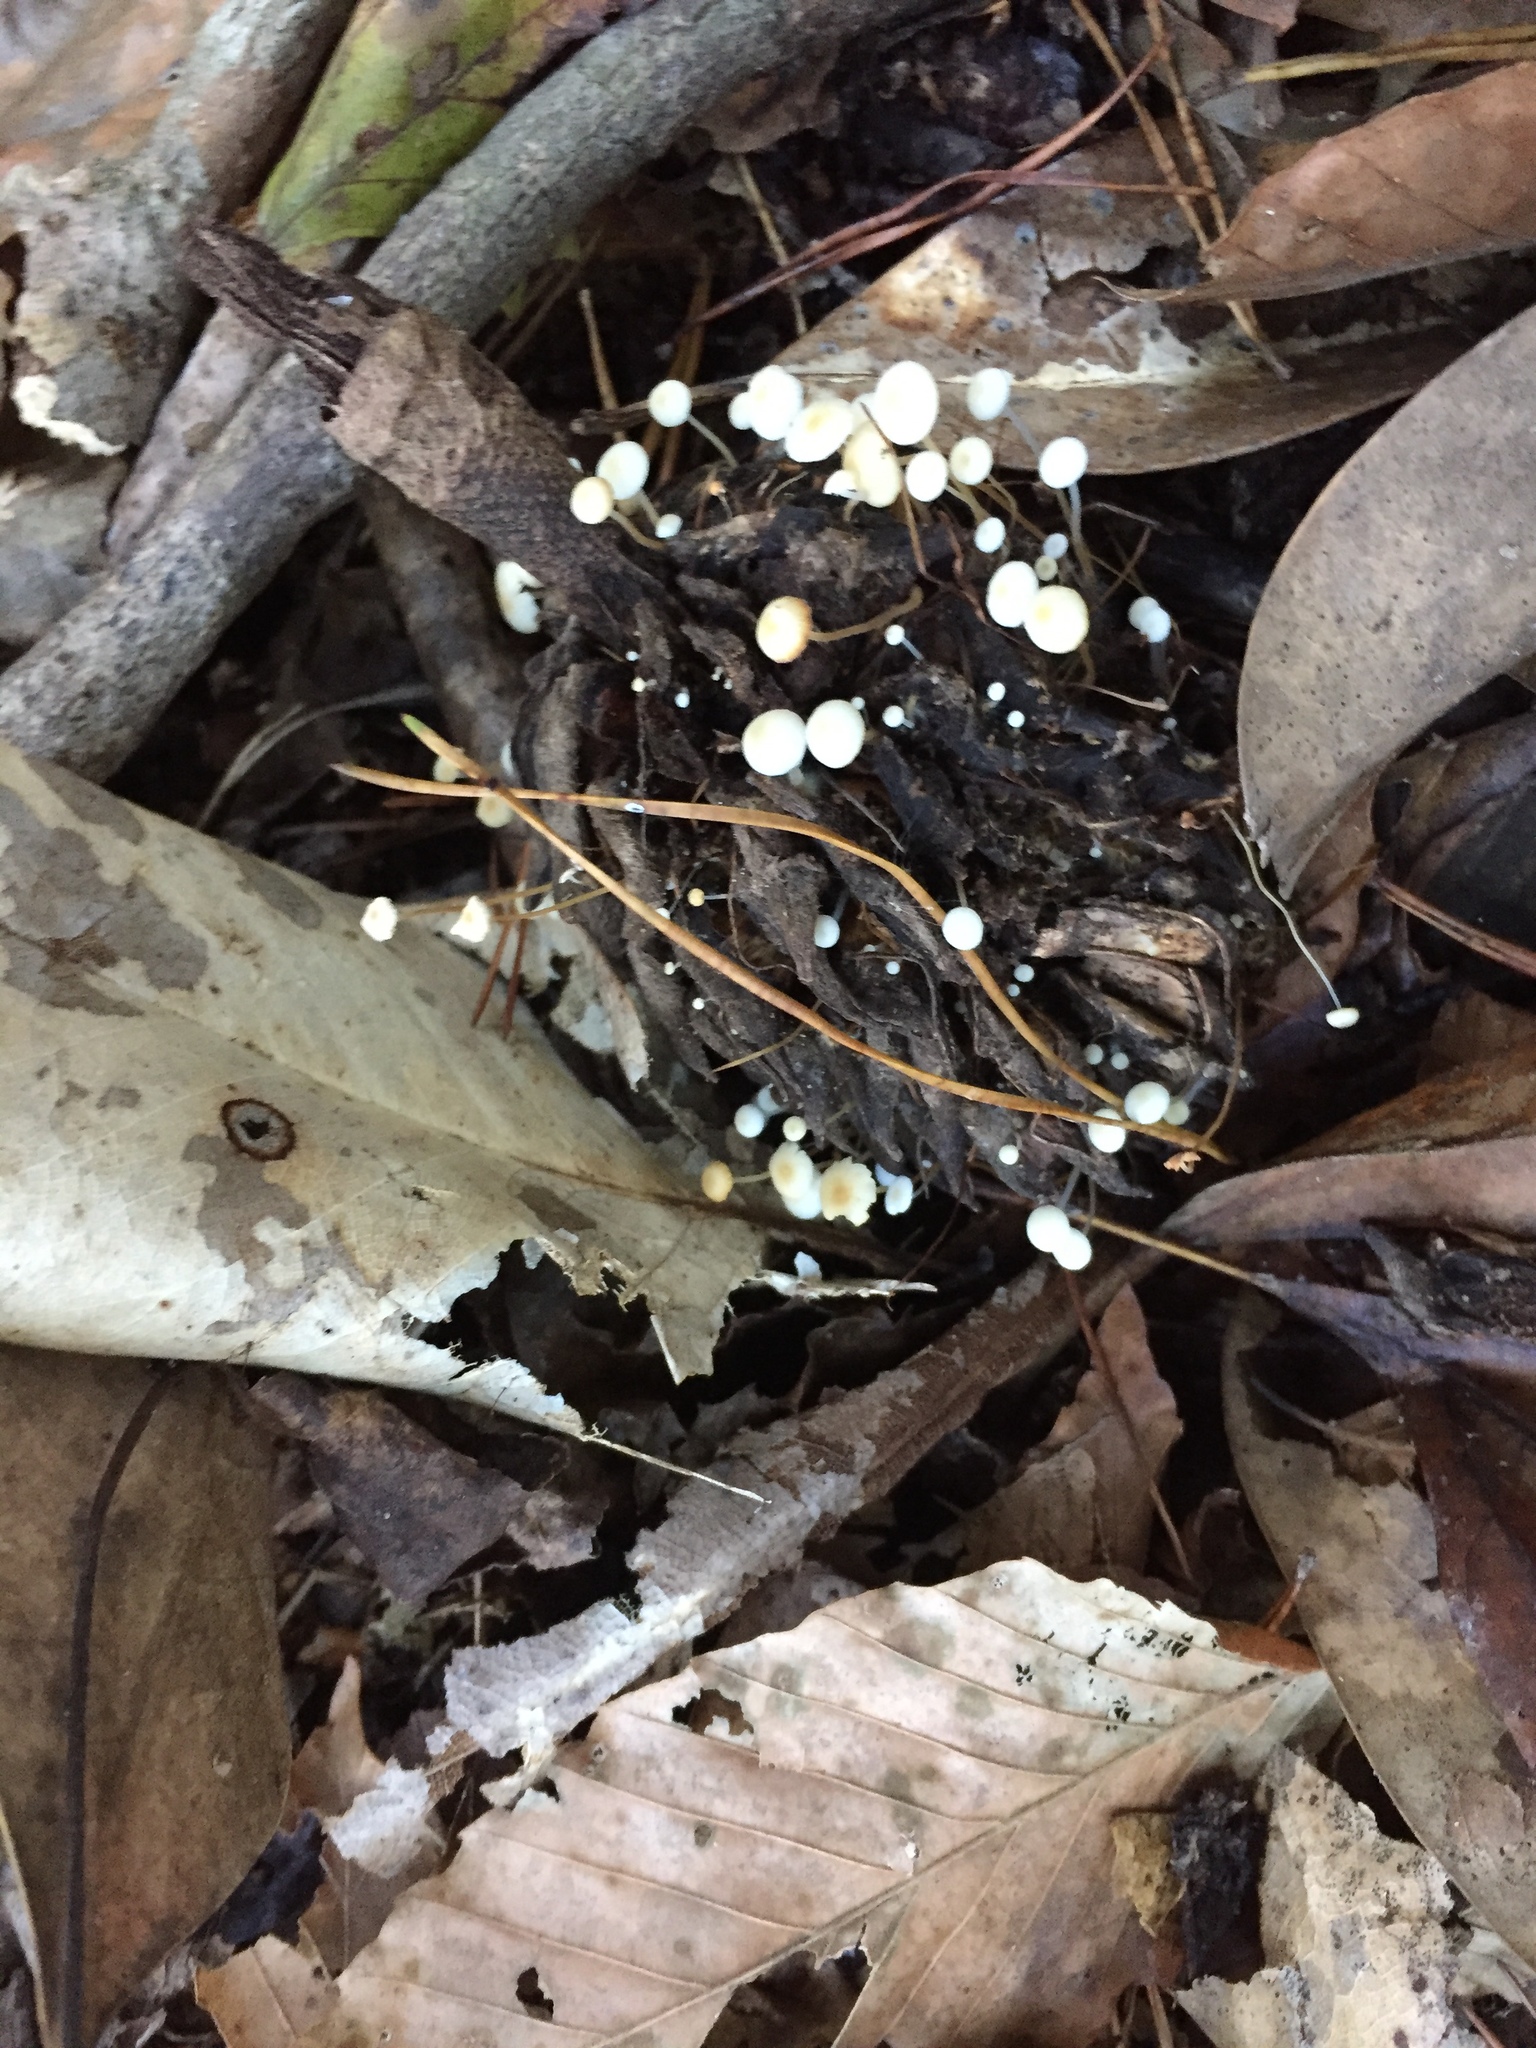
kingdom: Fungi
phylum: Basidiomycota
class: Agaricomycetes
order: Agaricales
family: Physalacriaceae
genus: Strobilurus
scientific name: Strobilurus conigenoides
